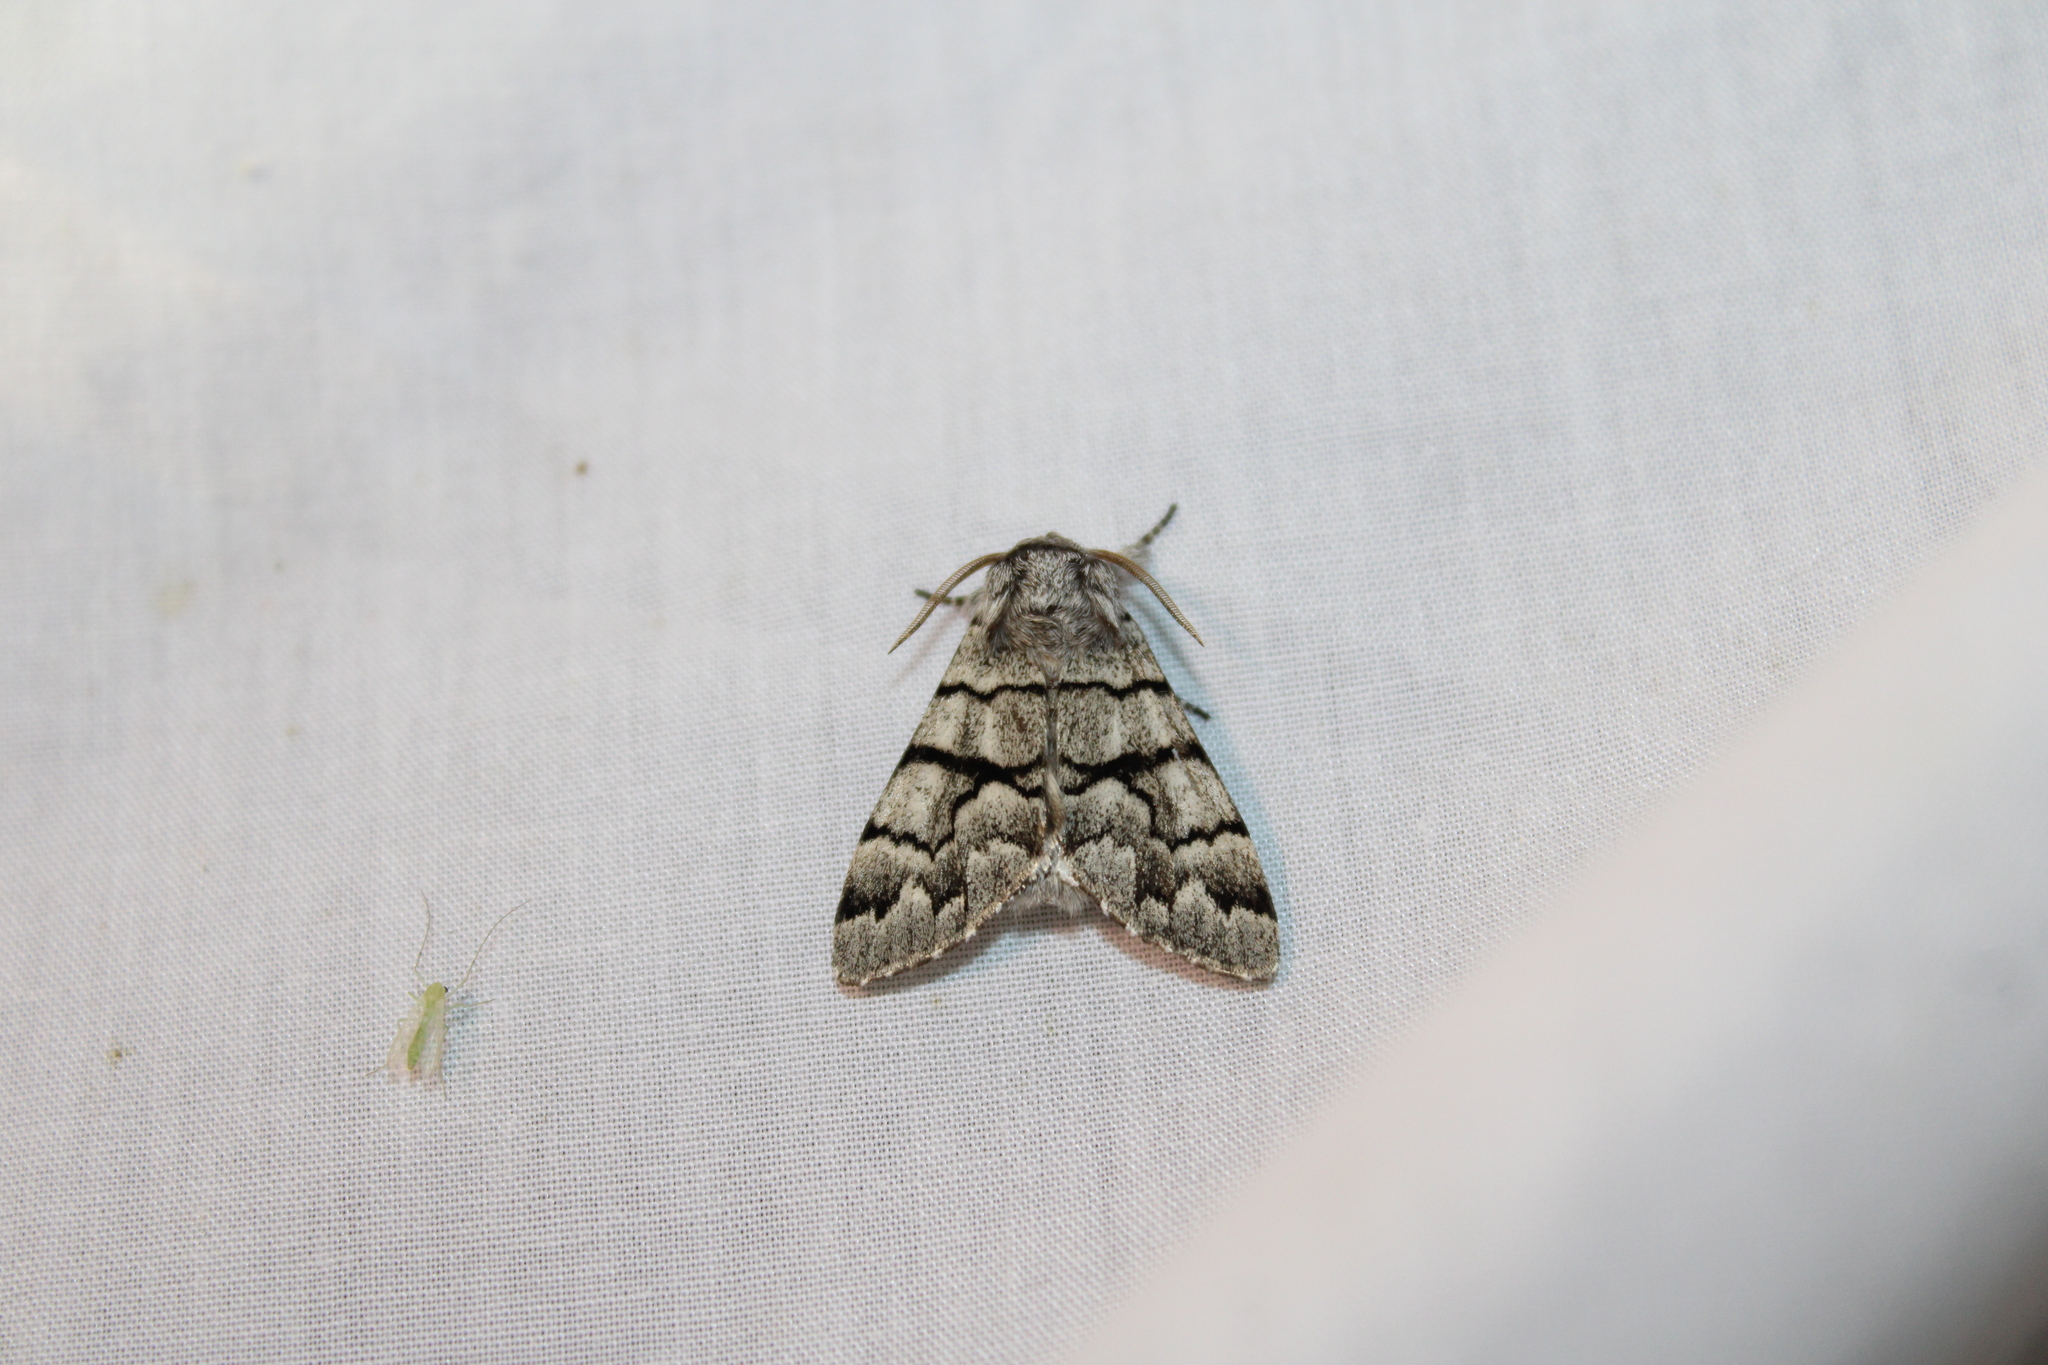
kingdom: Animalia
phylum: Arthropoda
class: Insecta
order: Lepidoptera
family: Noctuidae
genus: Panthea
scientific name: Panthea furcilla
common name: Eastern panthea moth
